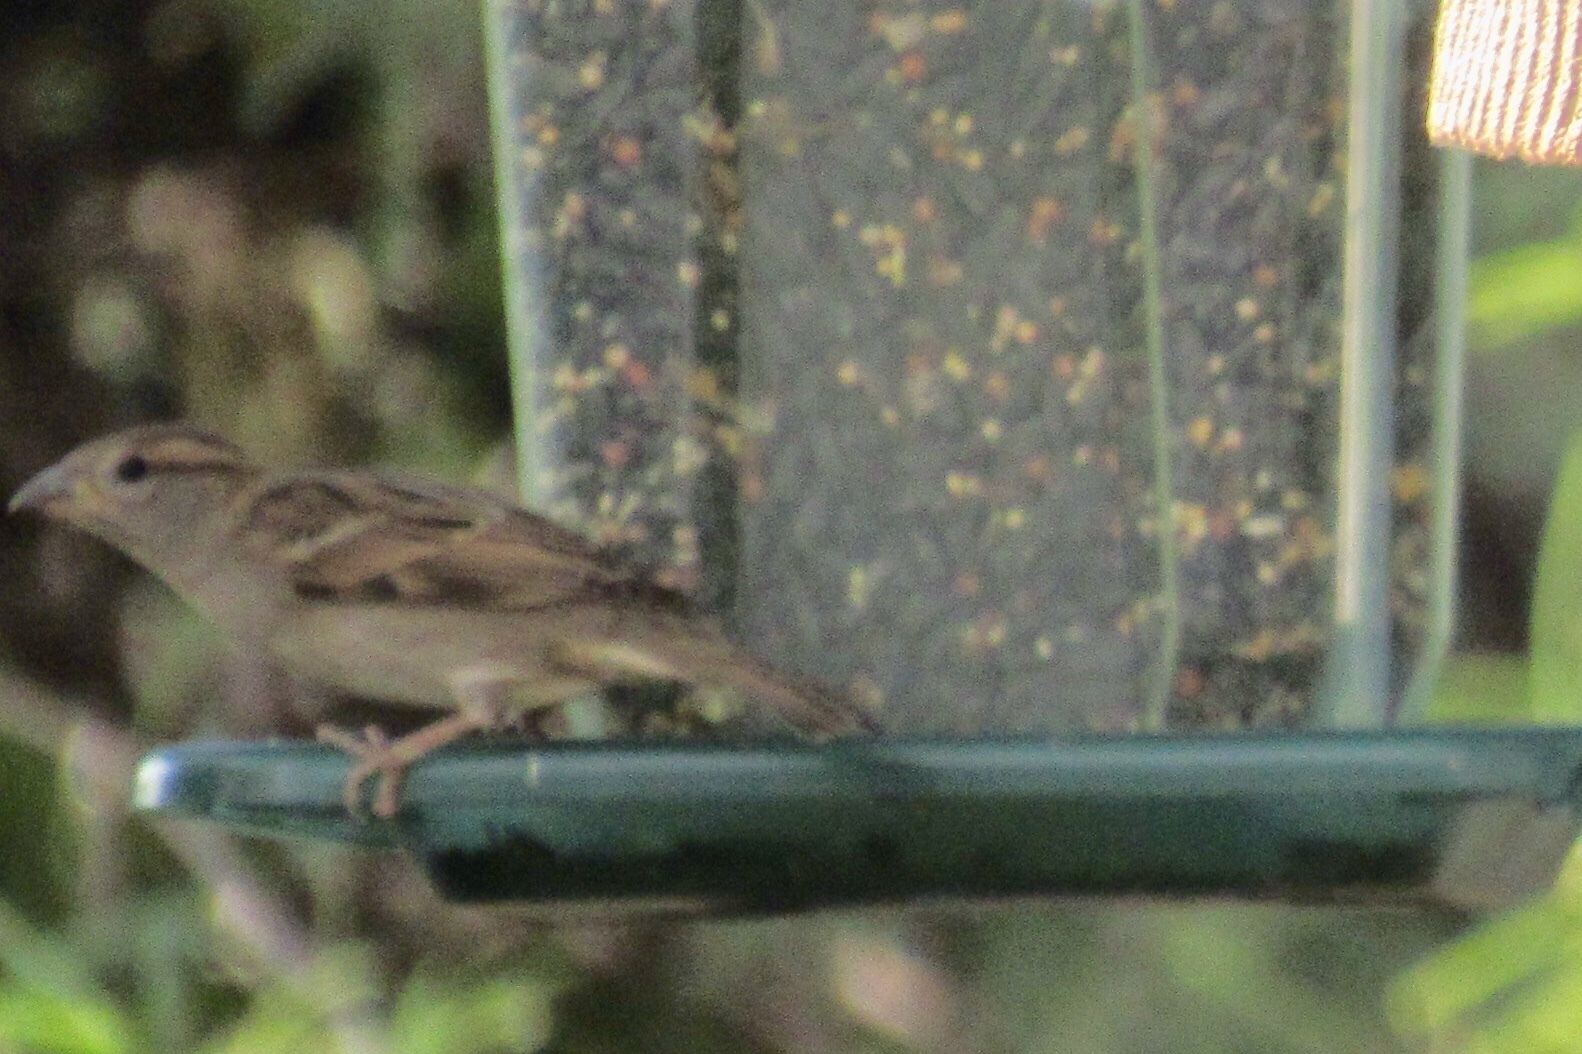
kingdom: Animalia
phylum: Chordata
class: Aves
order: Passeriformes
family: Passeridae
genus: Passer
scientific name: Passer domesticus
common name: House sparrow
